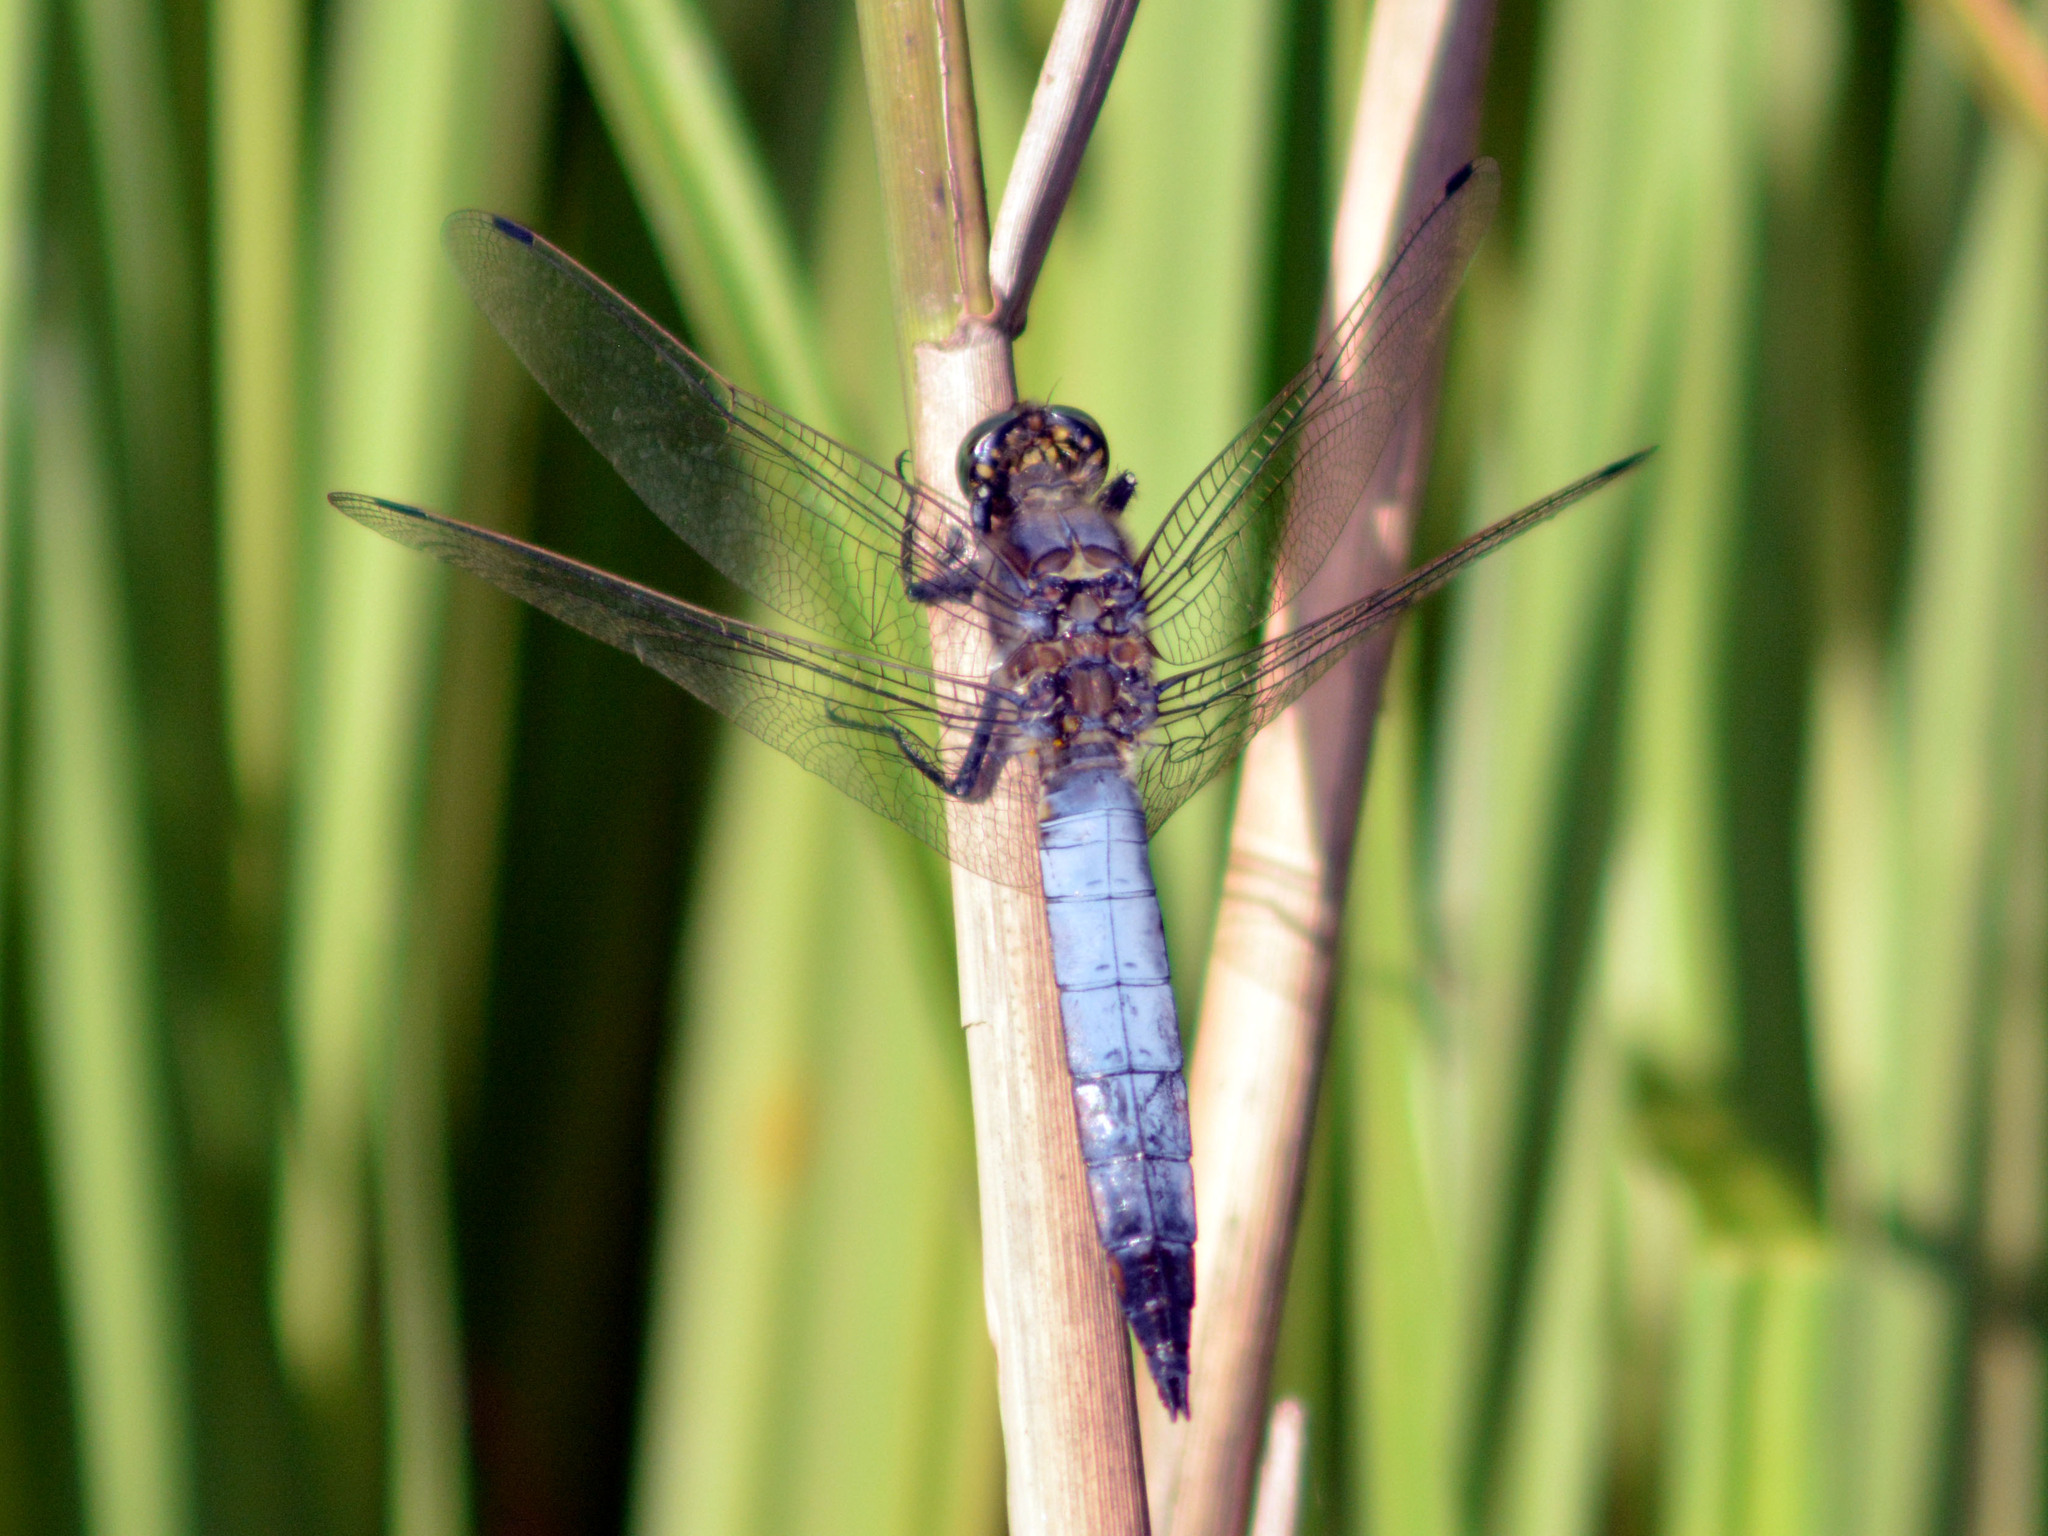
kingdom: Animalia
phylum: Arthropoda
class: Insecta
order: Odonata
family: Libellulidae
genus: Orthetrum
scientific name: Orthetrum cancellatum
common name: Black-tailed skimmer
